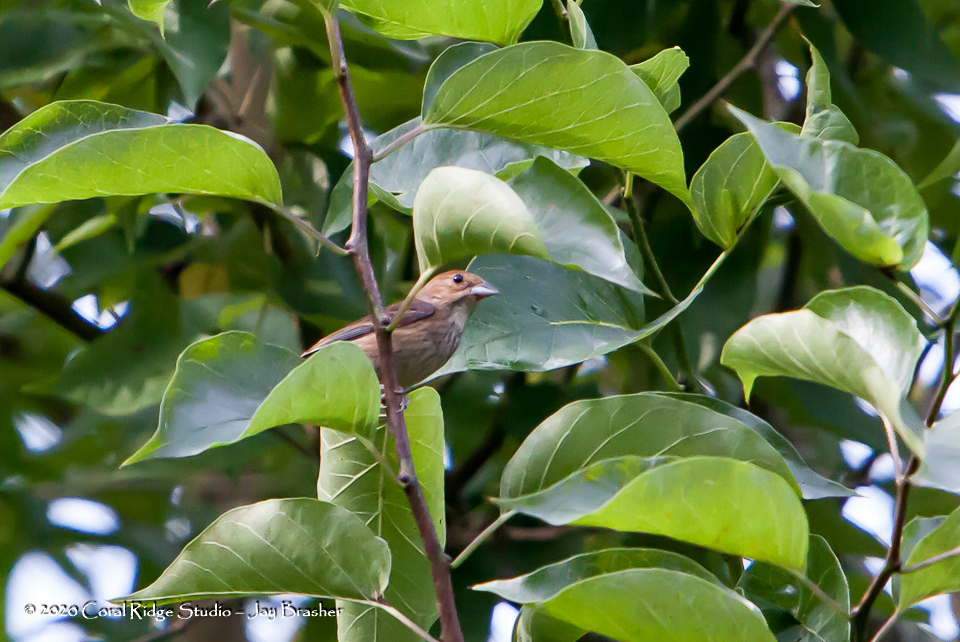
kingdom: Animalia
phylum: Chordata
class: Aves
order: Passeriformes
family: Cardinalidae
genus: Passerina
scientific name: Passerina cyanea
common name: Indigo bunting
